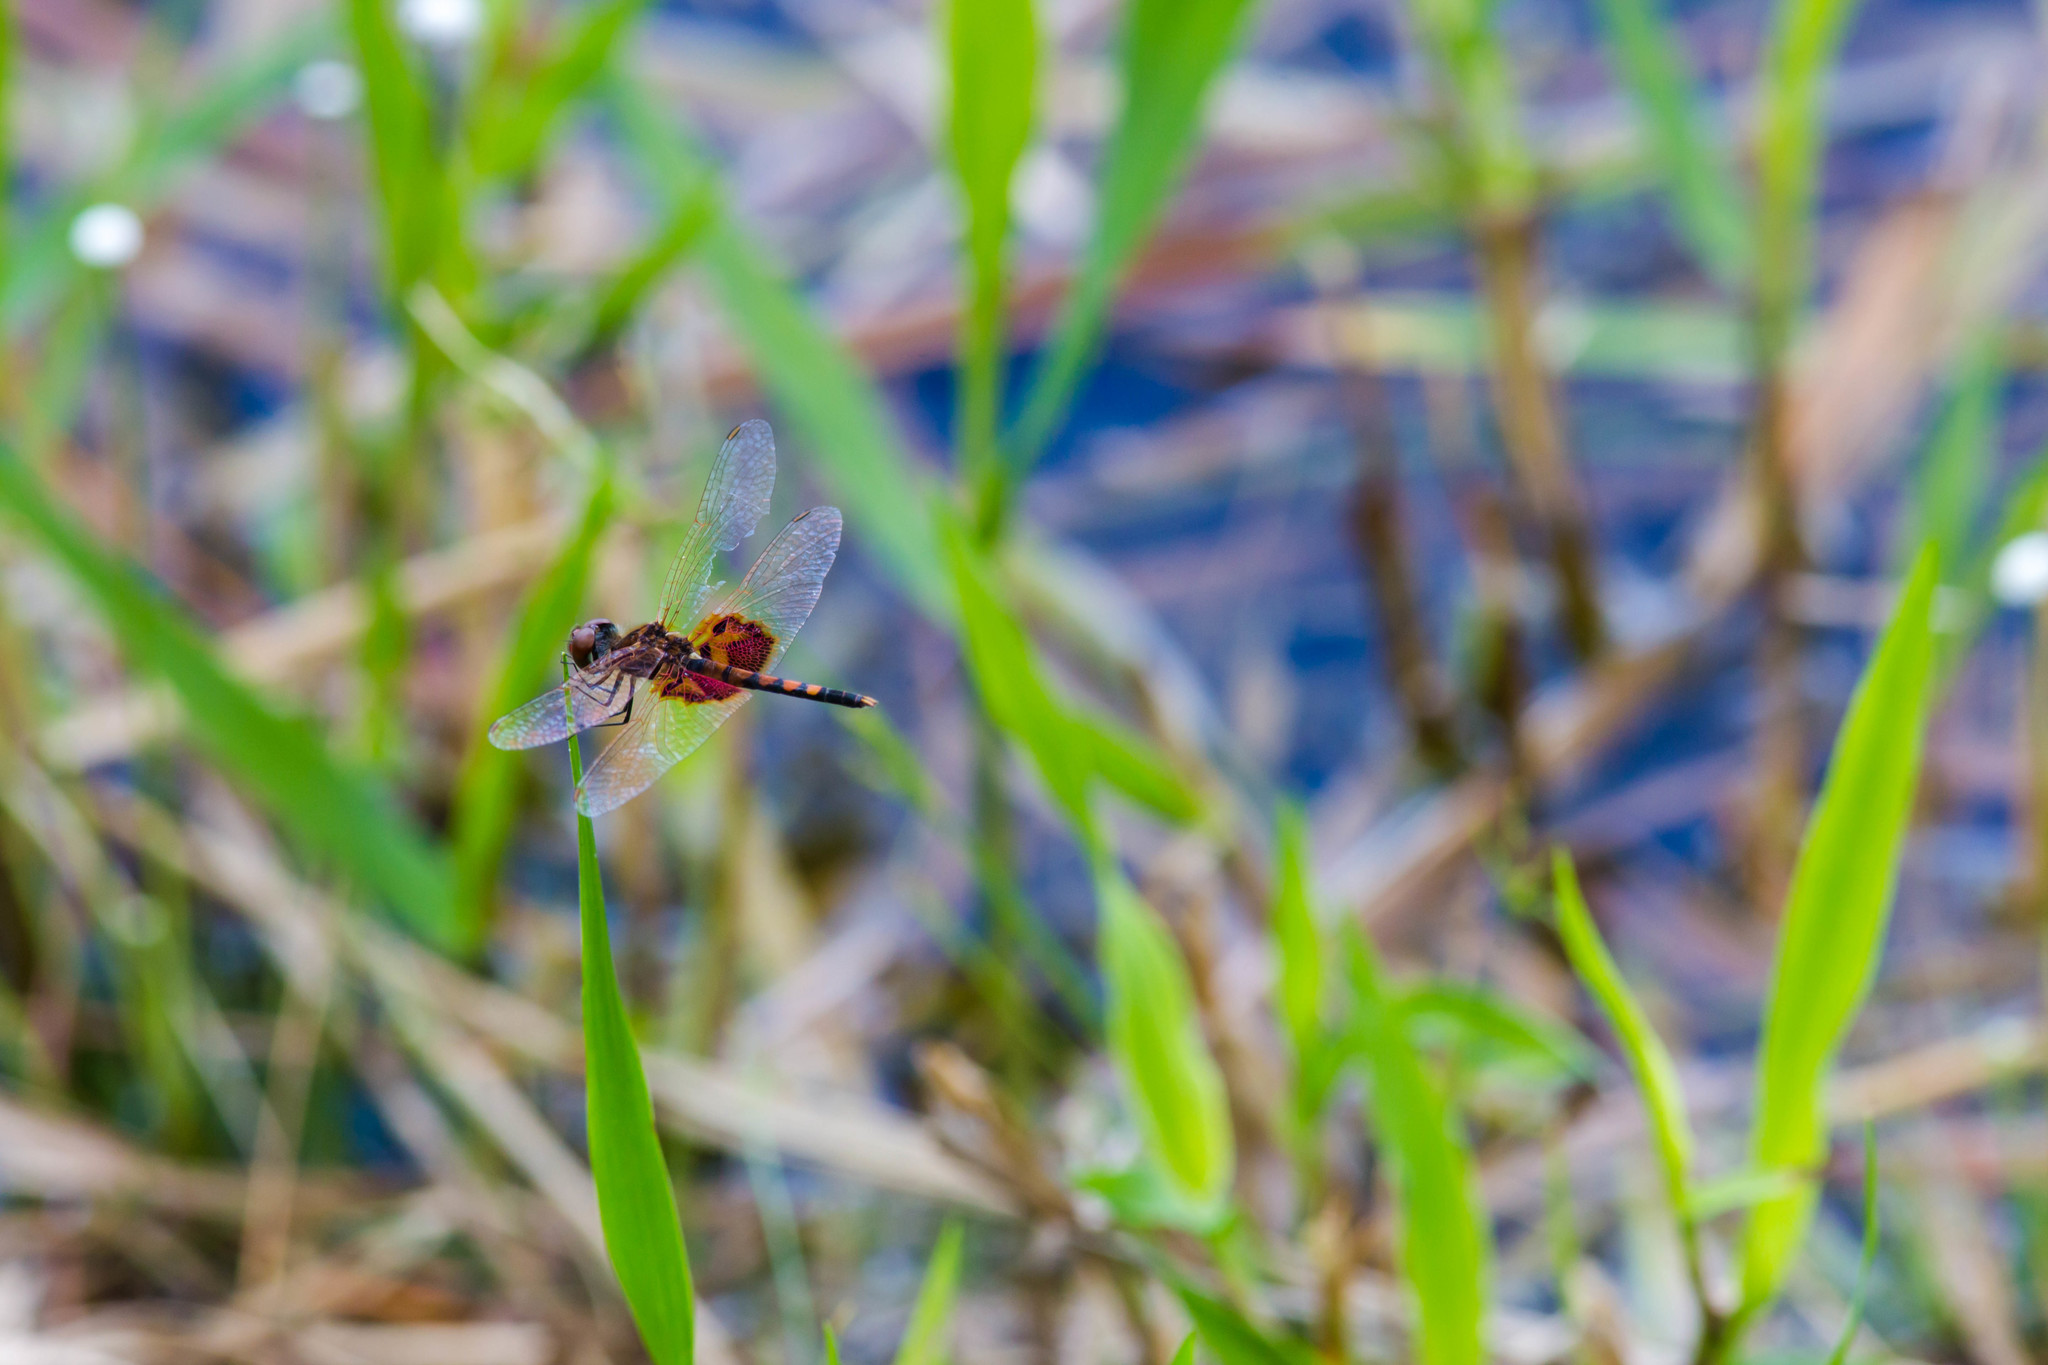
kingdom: Animalia
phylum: Arthropoda
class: Insecta
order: Odonata
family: Libellulidae
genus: Celithemis
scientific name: Celithemis amanda
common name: Amanda's pennant
